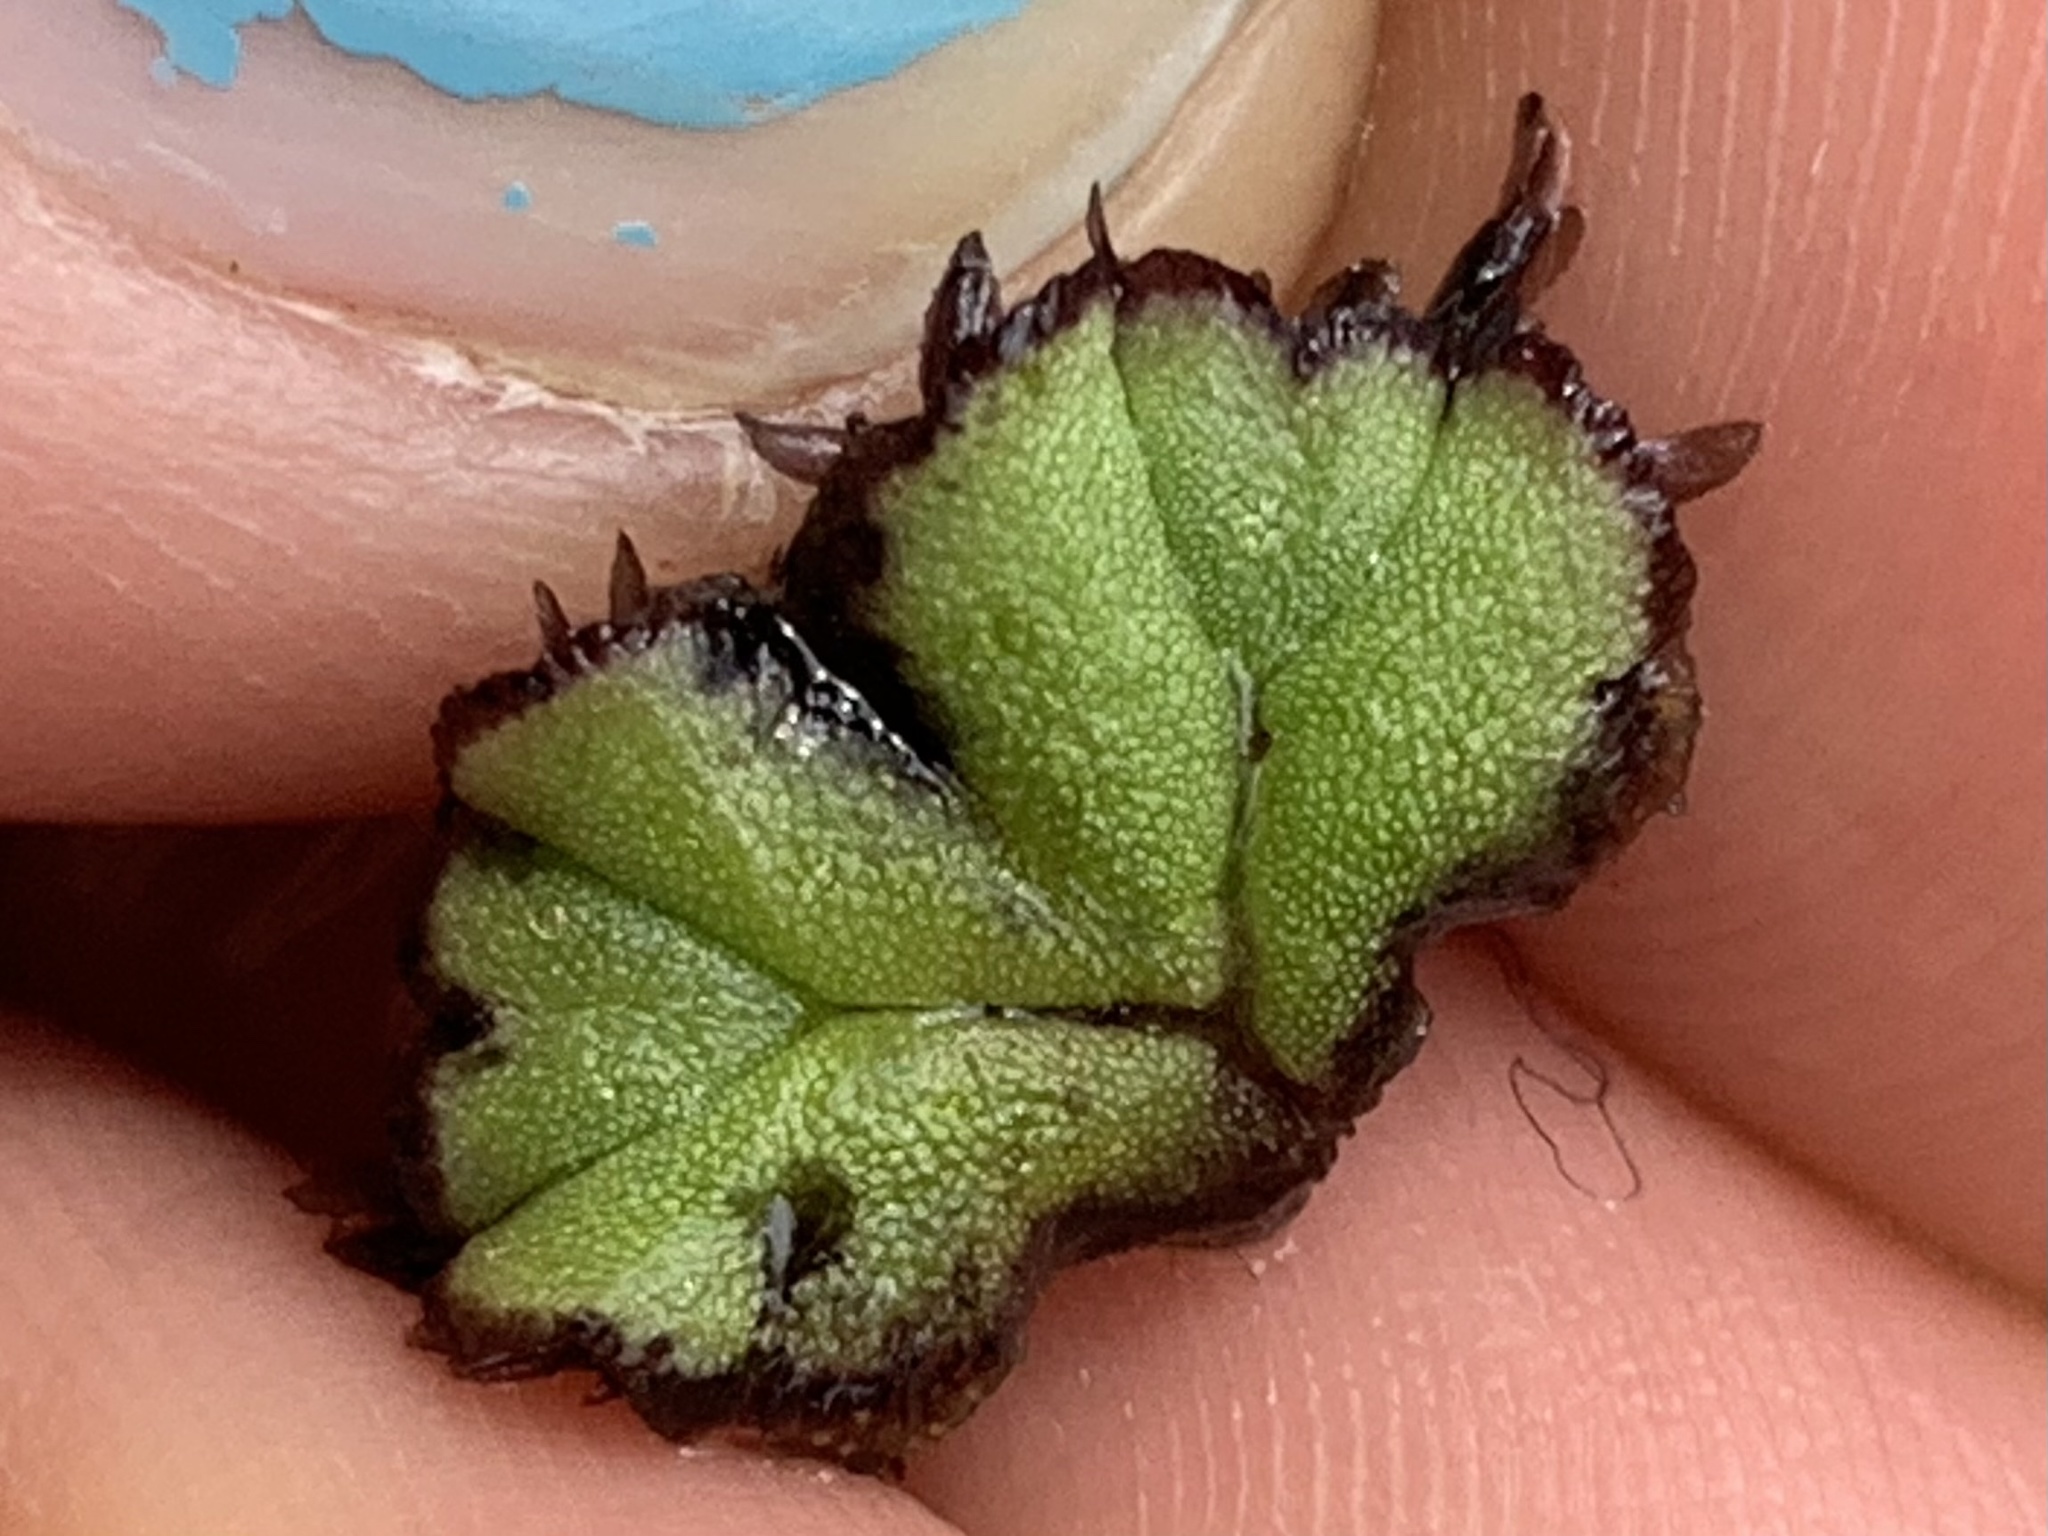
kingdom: Plantae
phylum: Marchantiophyta
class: Marchantiopsida
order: Marchantiales
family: Ricciaceae
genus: Ricciocarpos
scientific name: Ricciocarpos natans
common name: Purple-fringed liverwort
